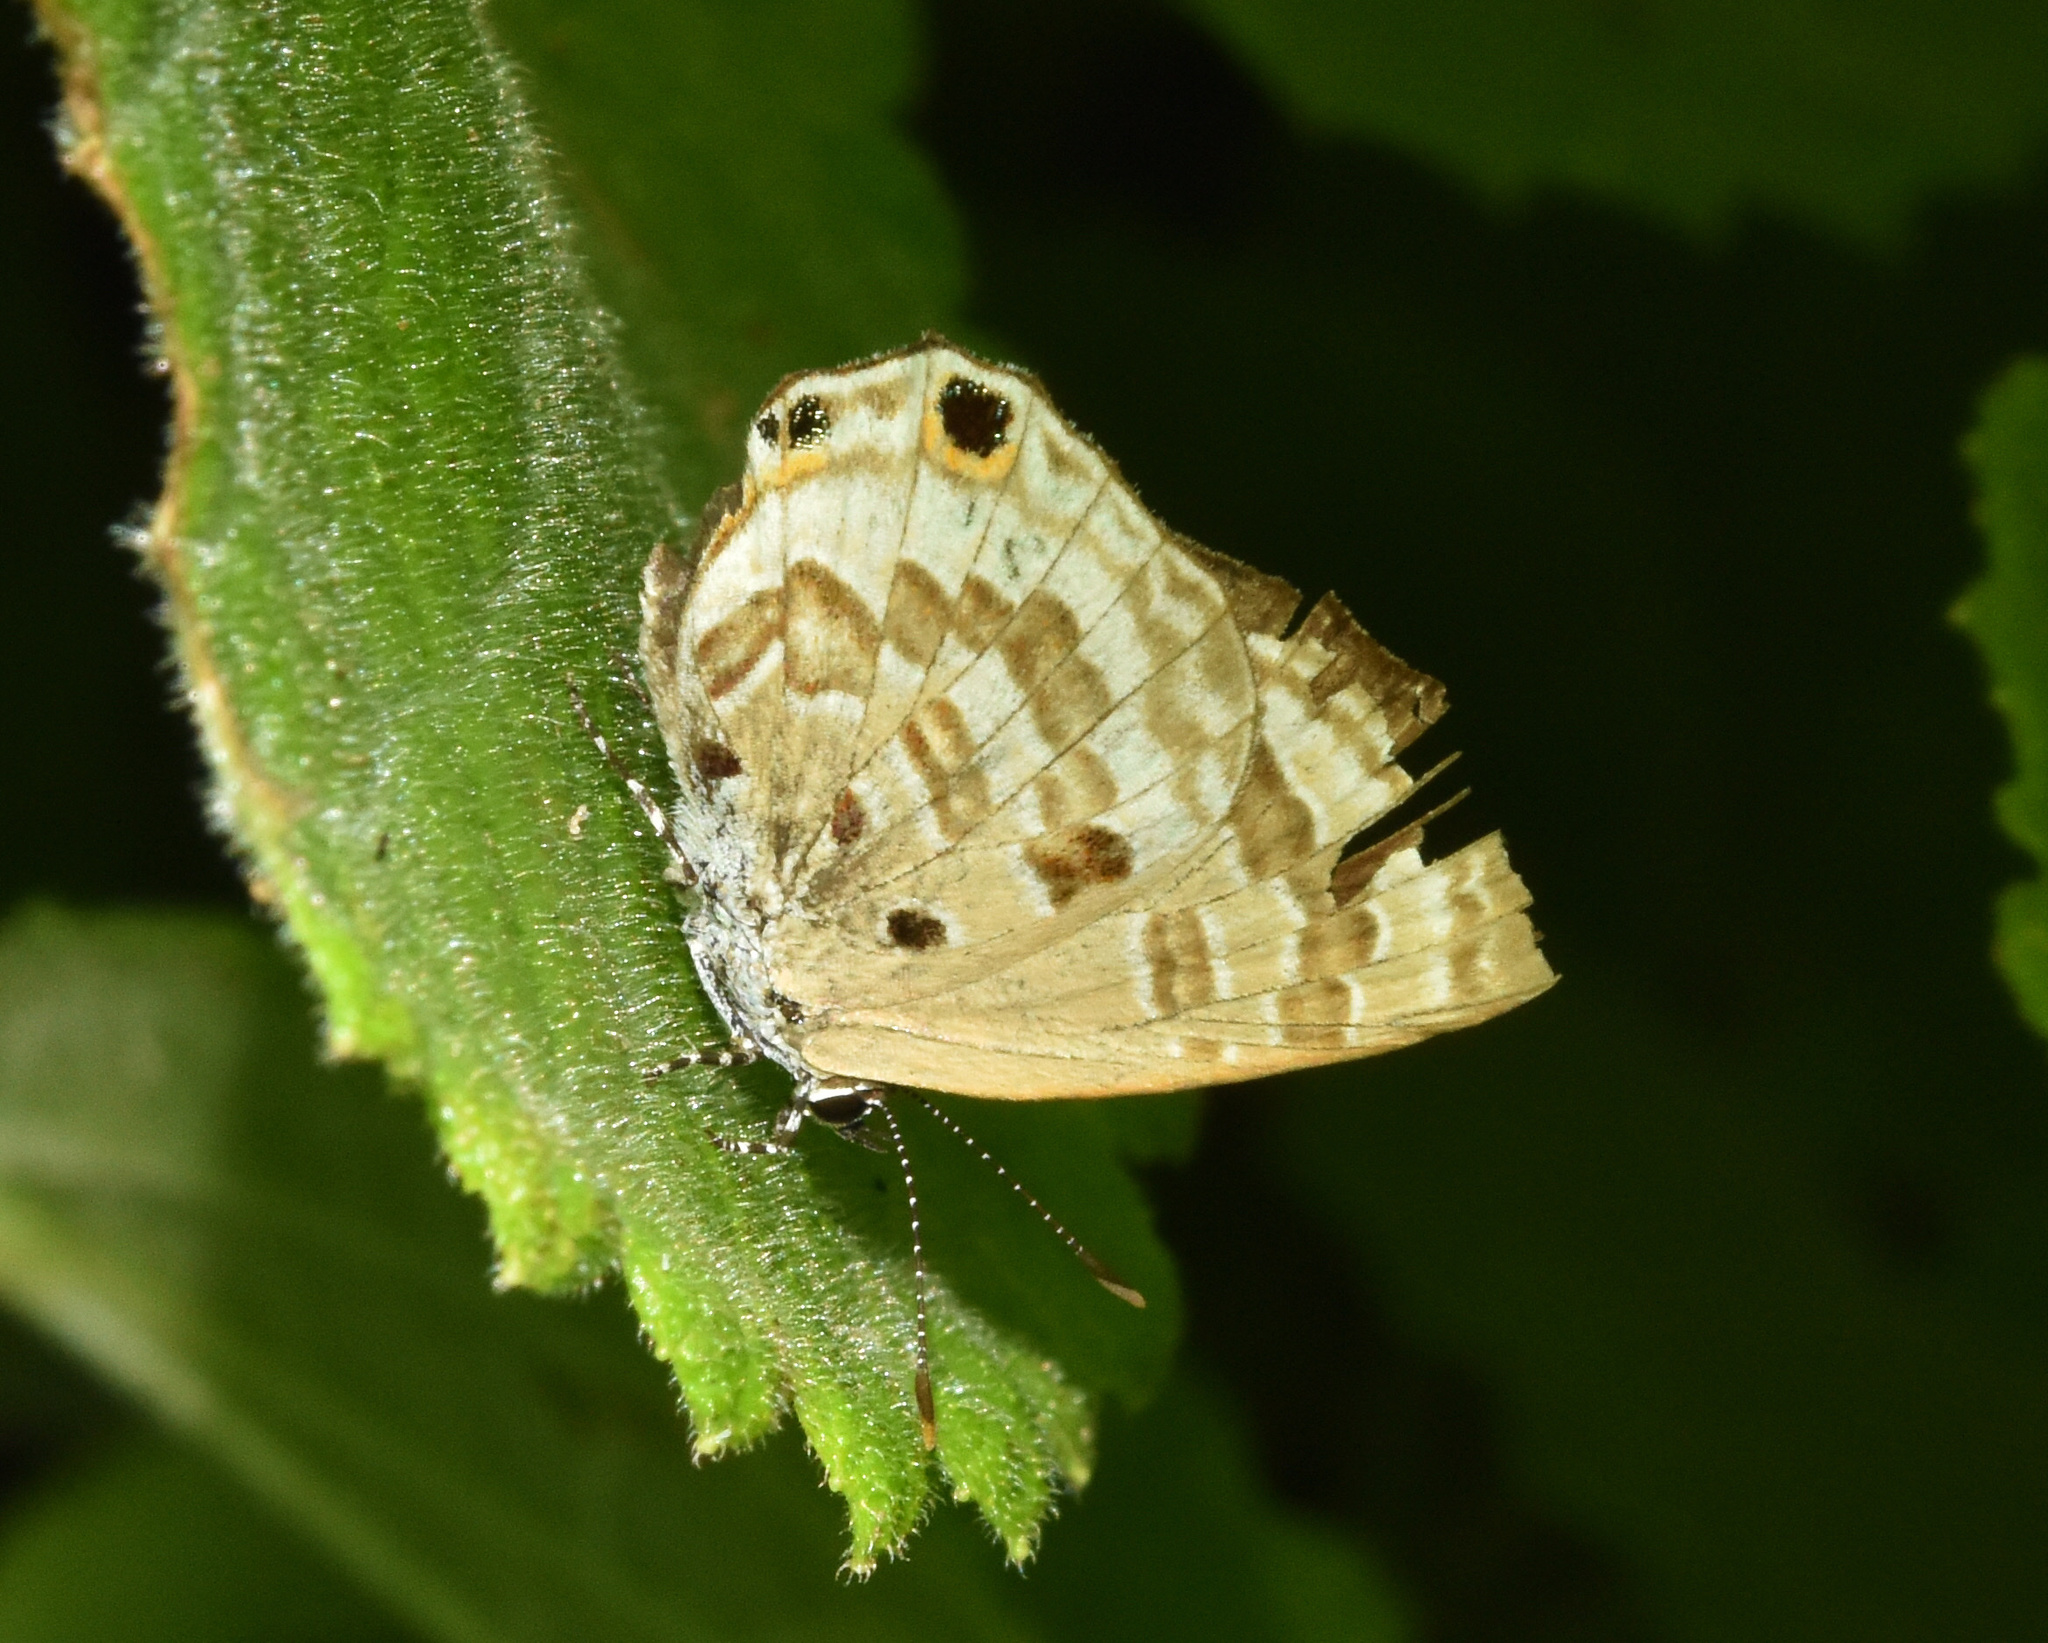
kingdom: Animalia
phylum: Arthropoda
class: Insecta
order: Lepidoptera
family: Lycaenidae
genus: Anthene
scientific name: Anthene lemnos
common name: Large ciliate blue
